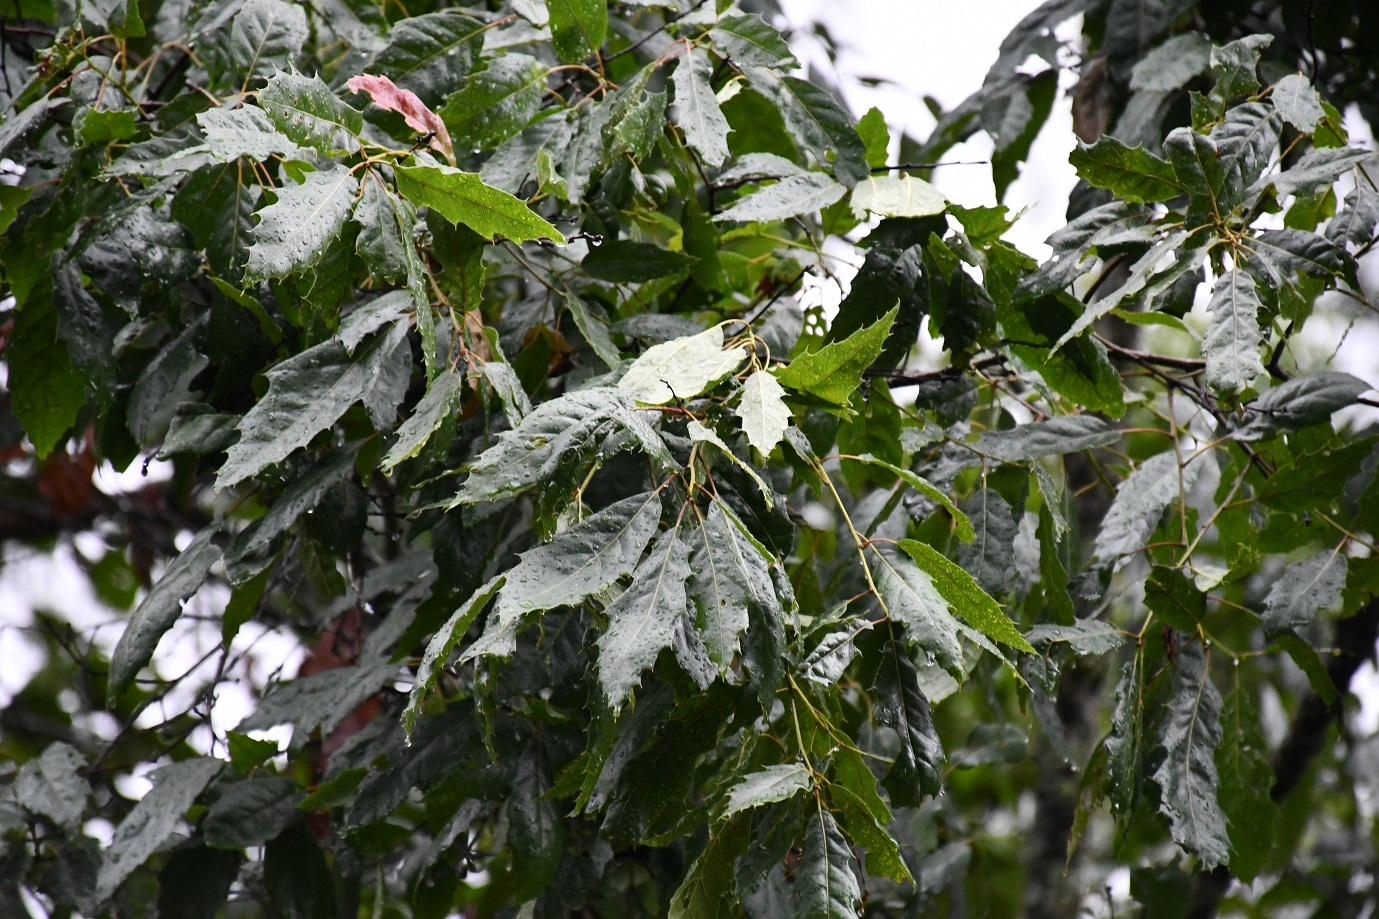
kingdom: Plantae
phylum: Tracheophyta
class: Magnoliopsida
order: Fagales
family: Fagaceae
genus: Quercus
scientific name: Quercus paxtalensis
